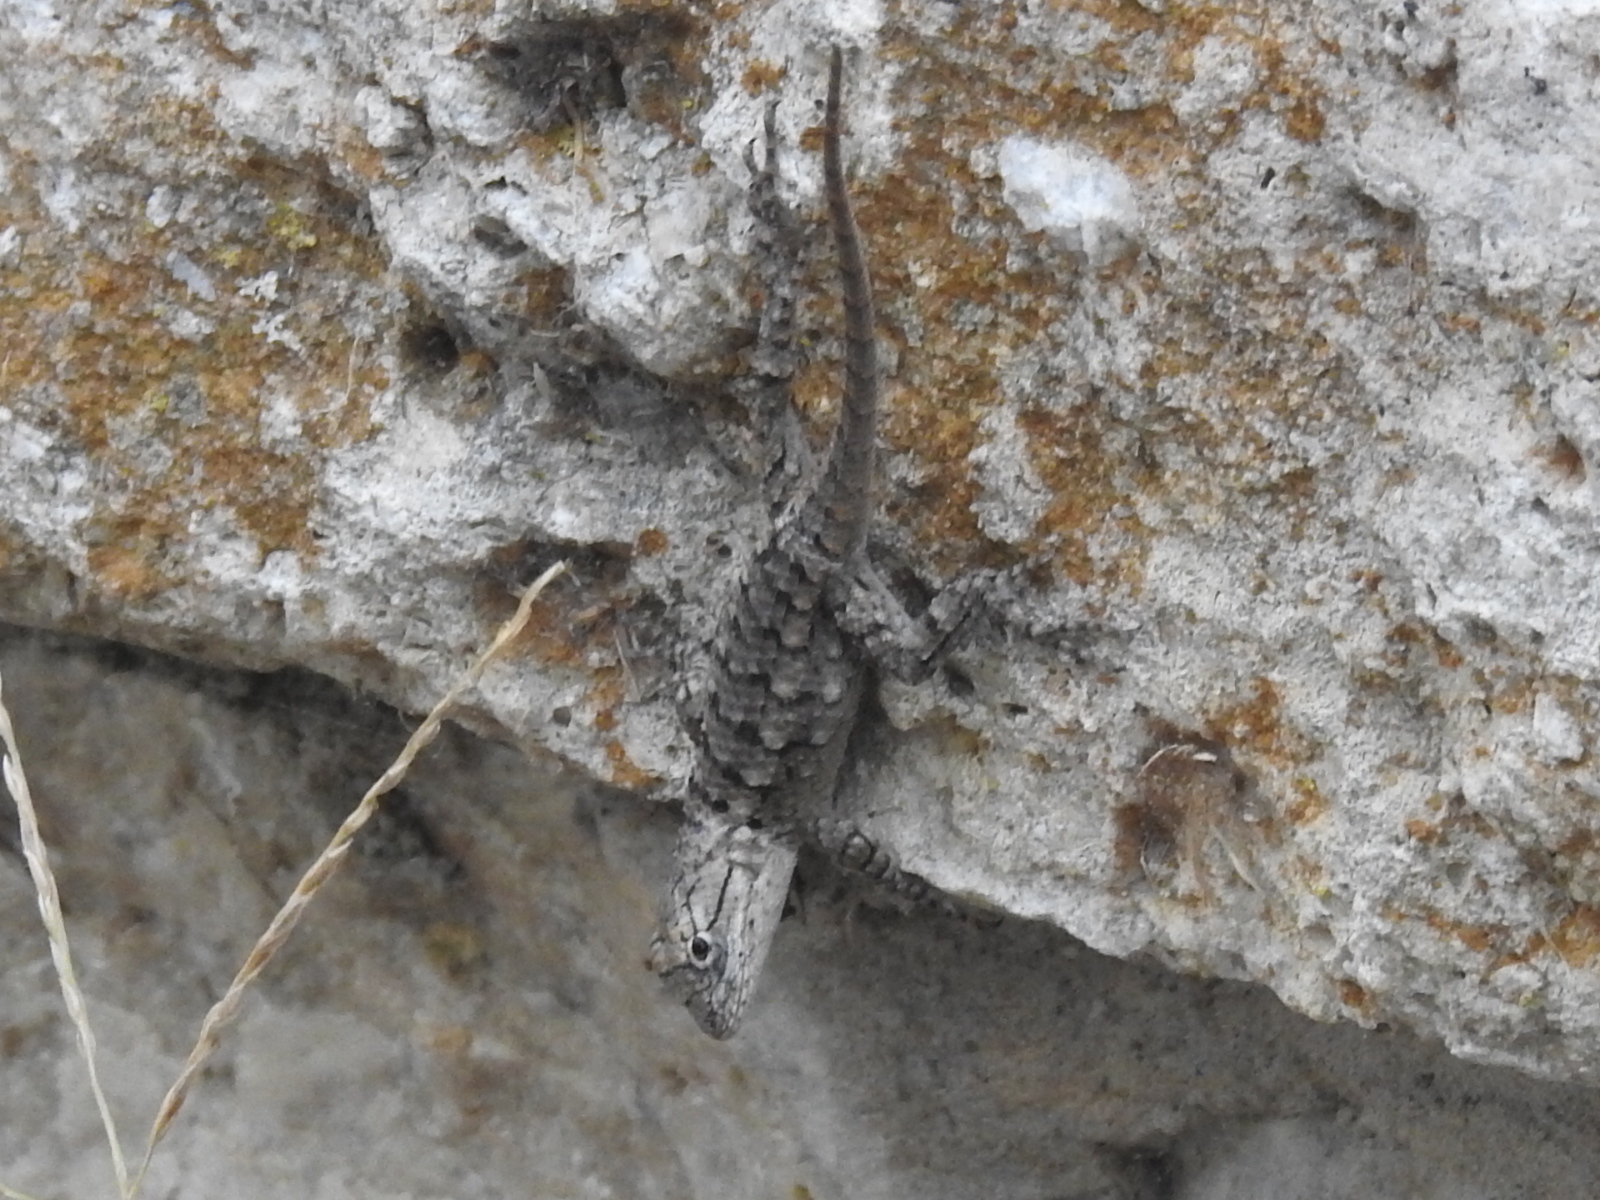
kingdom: Animalia
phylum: Chordata
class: Squamata
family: Phrynosomatidae
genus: Sceloporus
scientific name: Sceloporus olivaceus
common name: Texas spiny lizard
